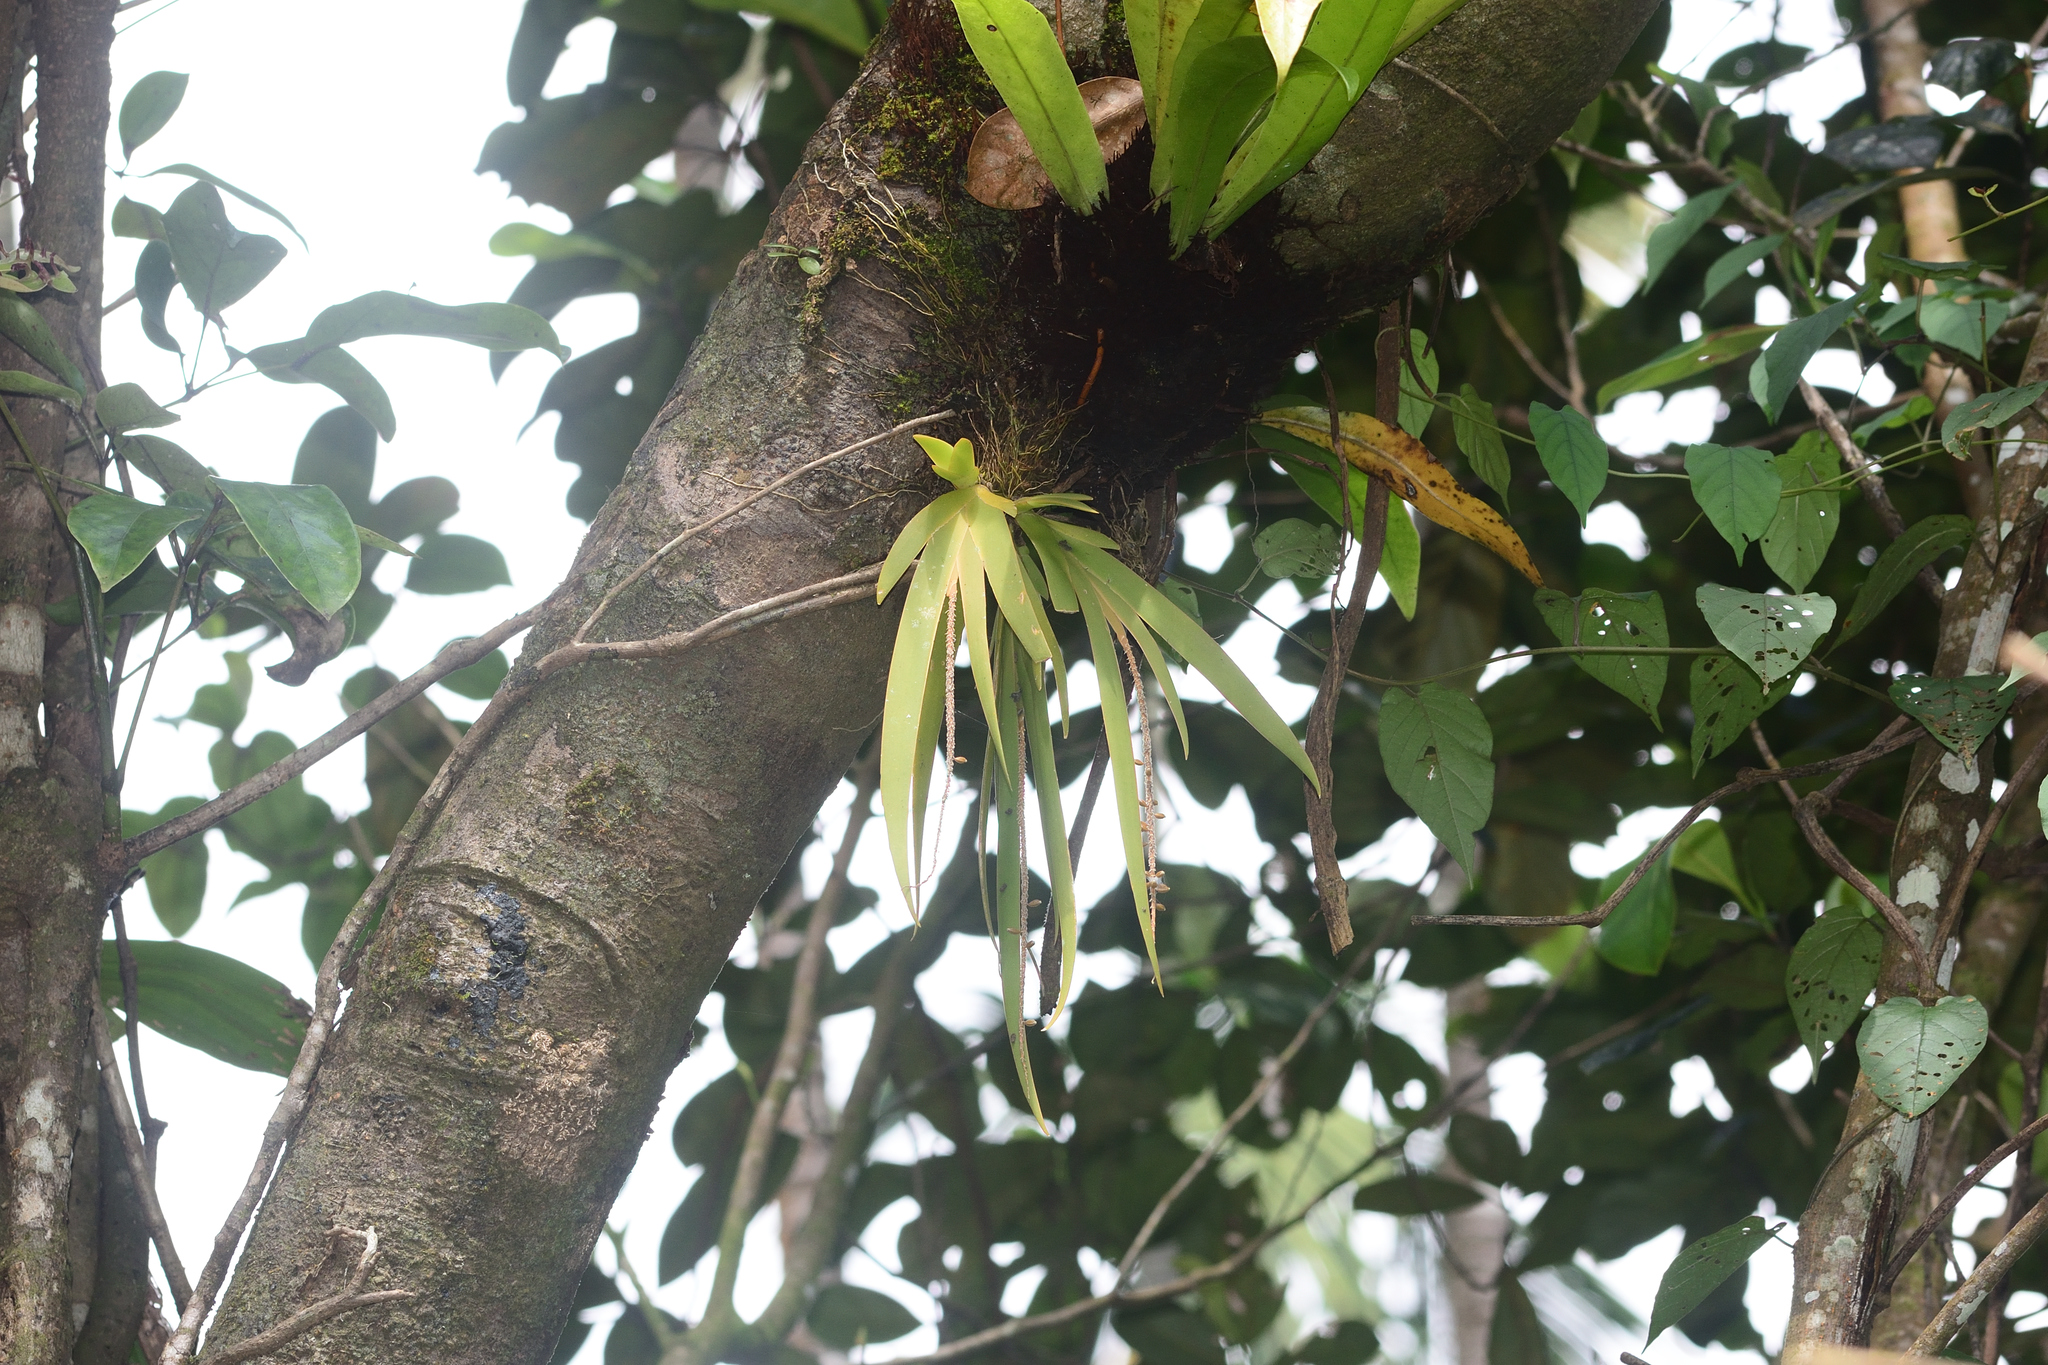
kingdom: Plantae
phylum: Tracheophyta
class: Liliopsida
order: Asparagales
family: Orchidaceae
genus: Oberonia
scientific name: Oberonia ensiformis
